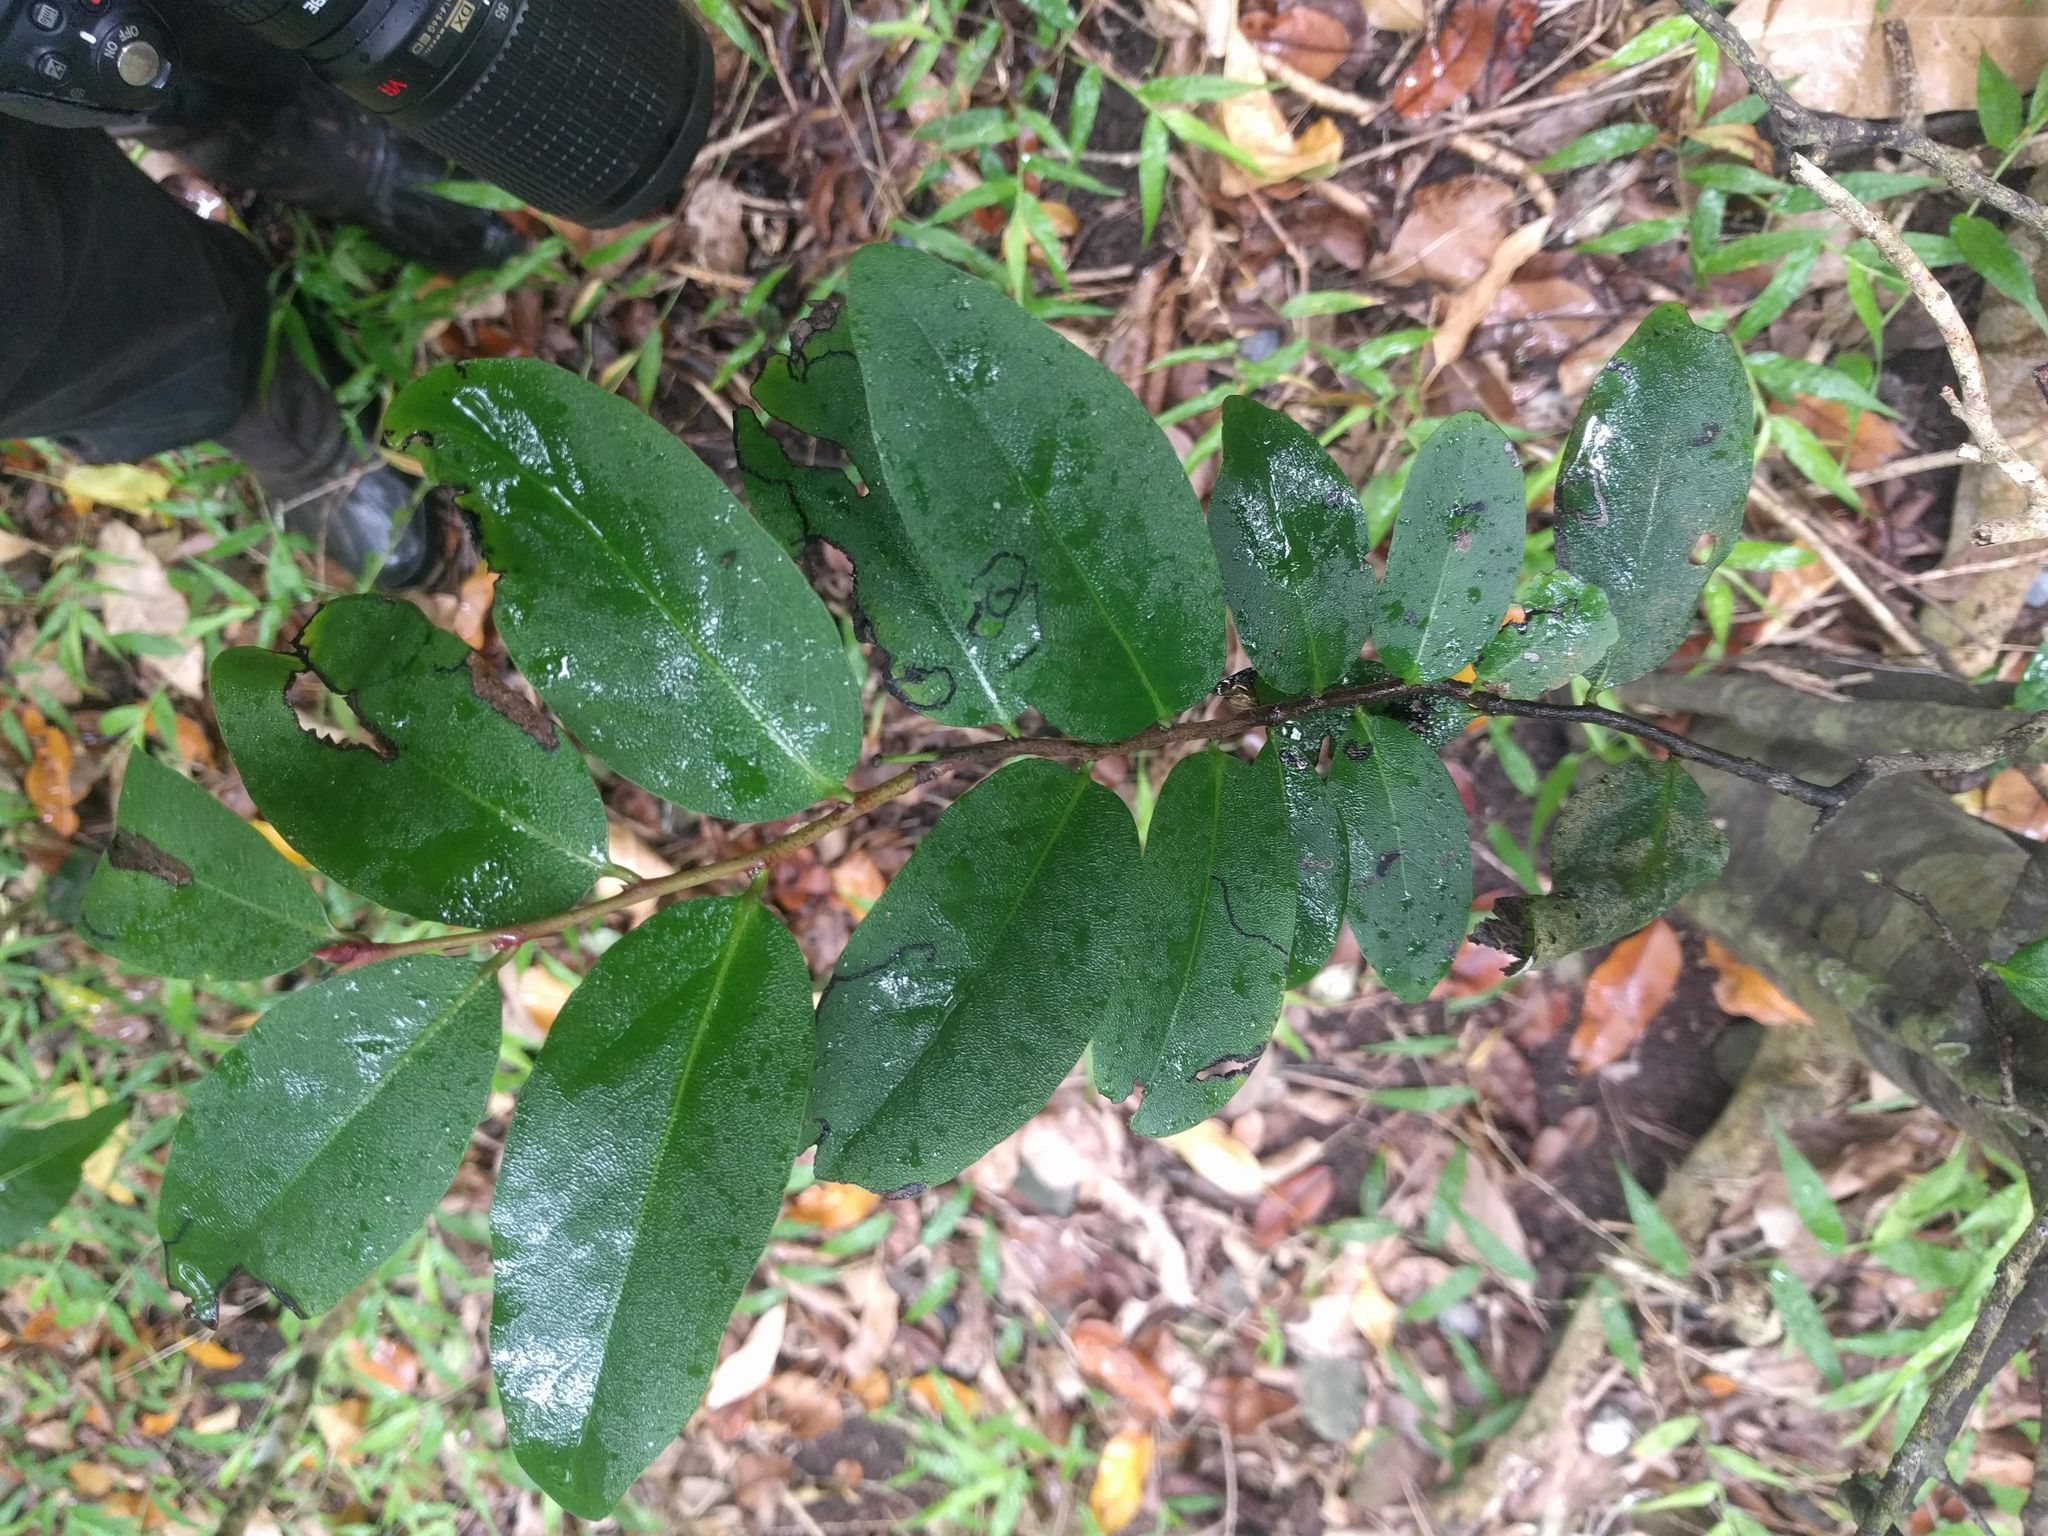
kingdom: Plantae
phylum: Tracheophyta
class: Magnoliopsida
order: Ericales
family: Ebenaceae
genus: Diospyros
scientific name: Diospyros hillebrandii
